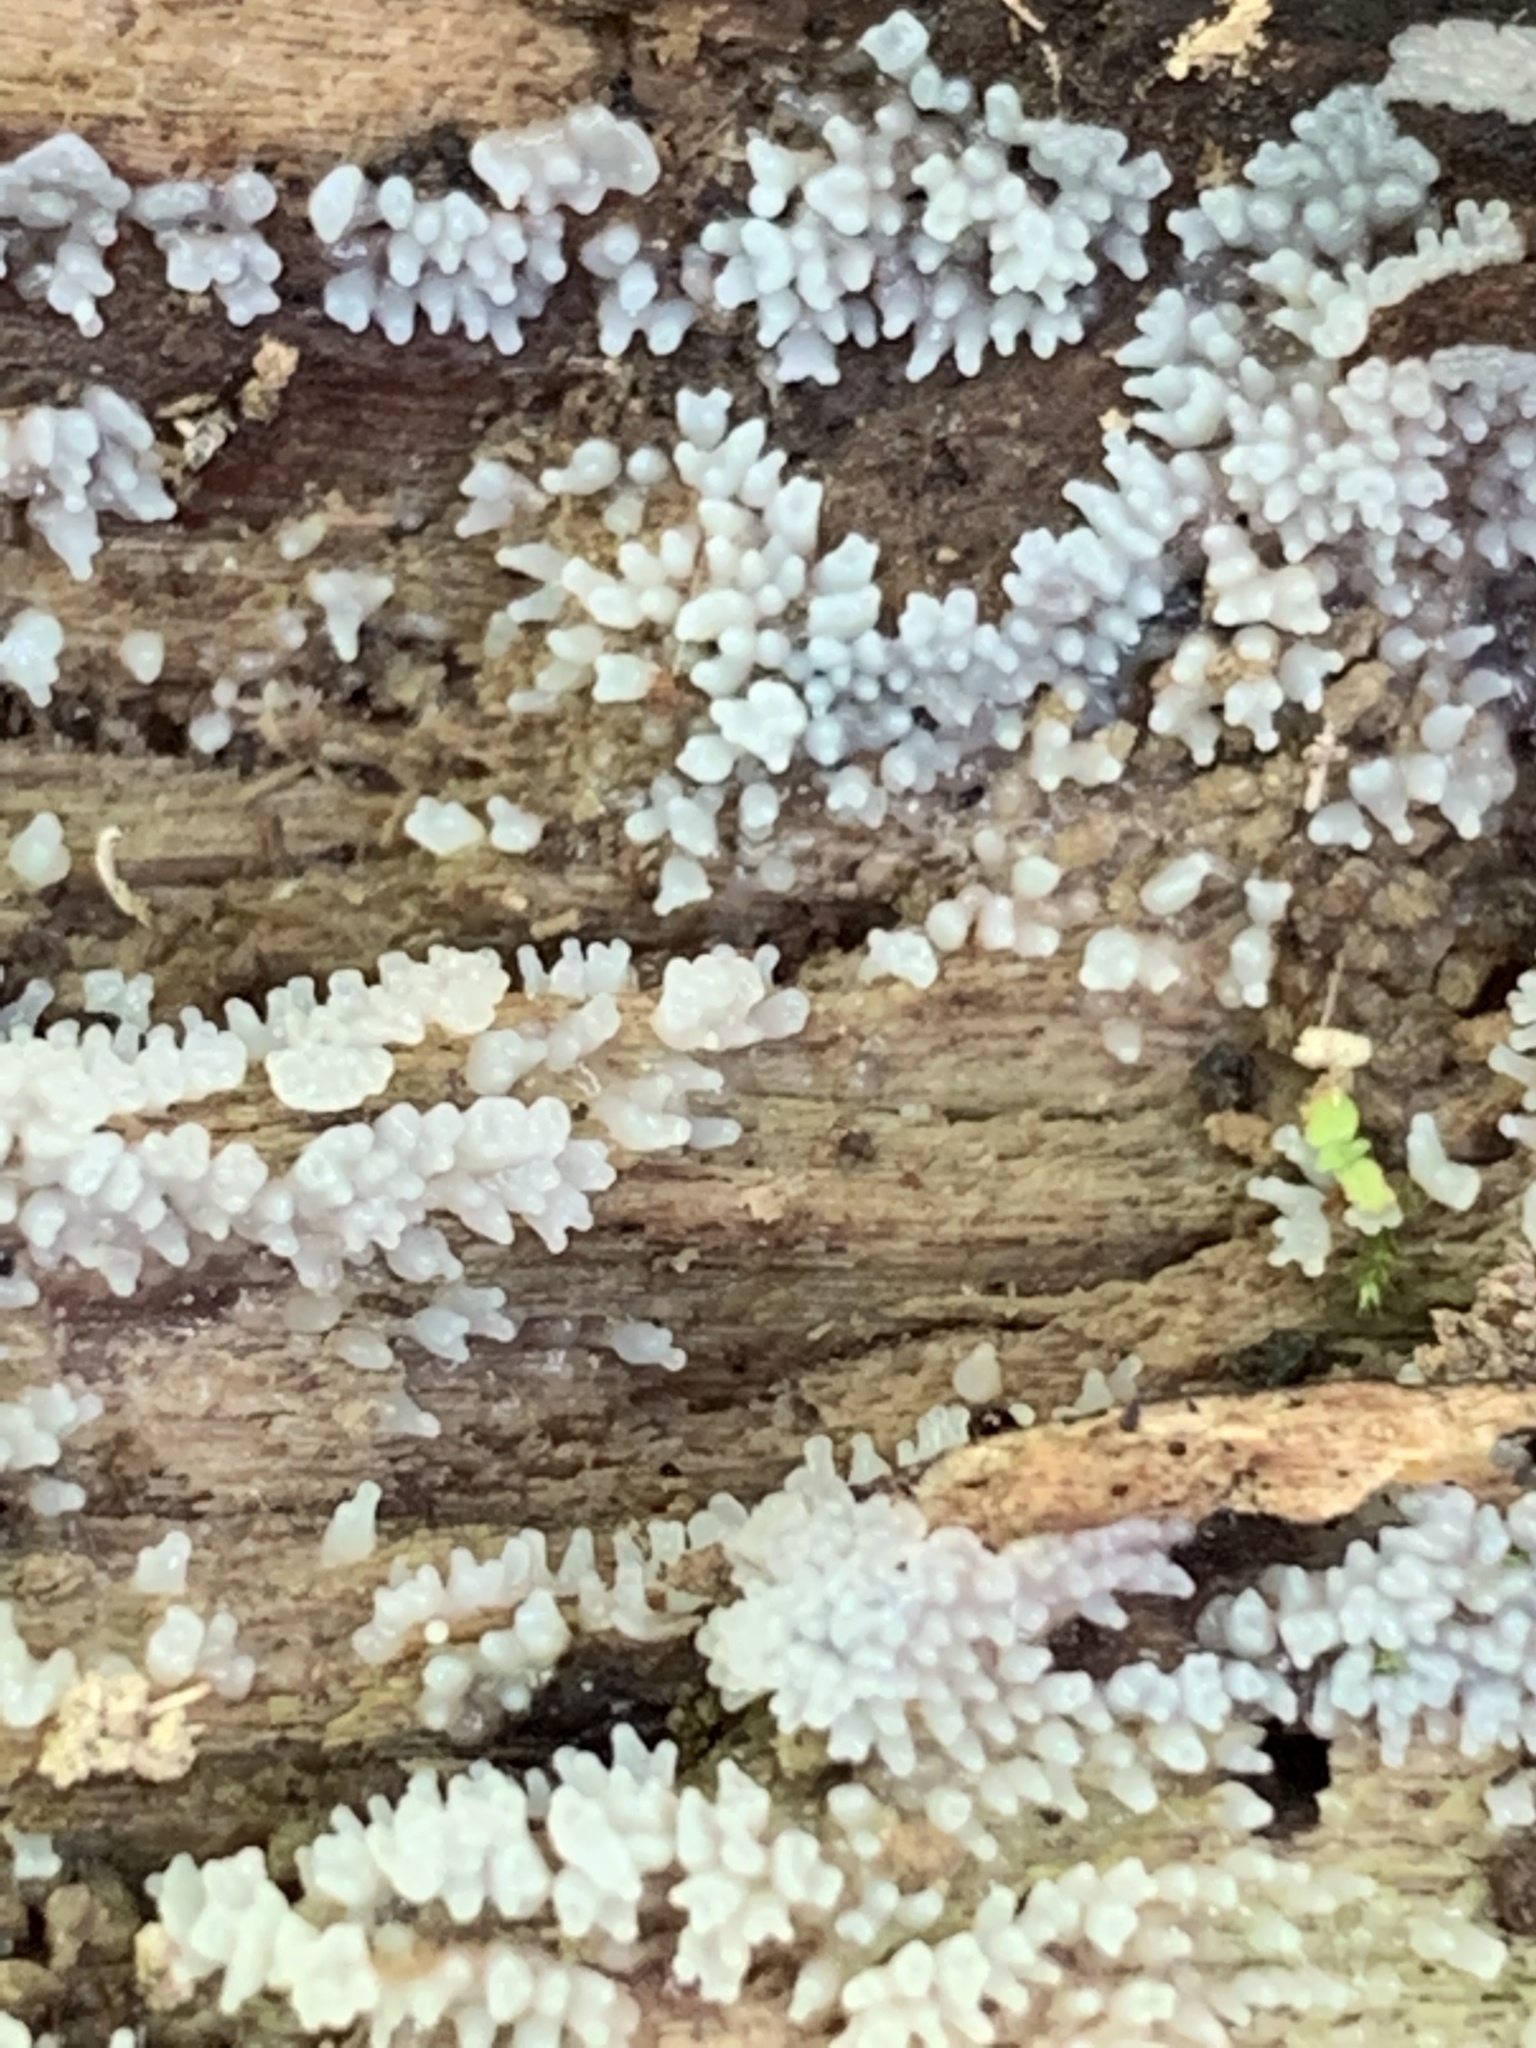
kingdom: Protozoa
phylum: Mycetozoa
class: Protosteliomycetes
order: Ceratiomyxales
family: Ceratiomyxaceae
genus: Ceratiomyxa
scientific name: Ceratiomyxa fruticulosa
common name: Honeycomb coral slime mold
